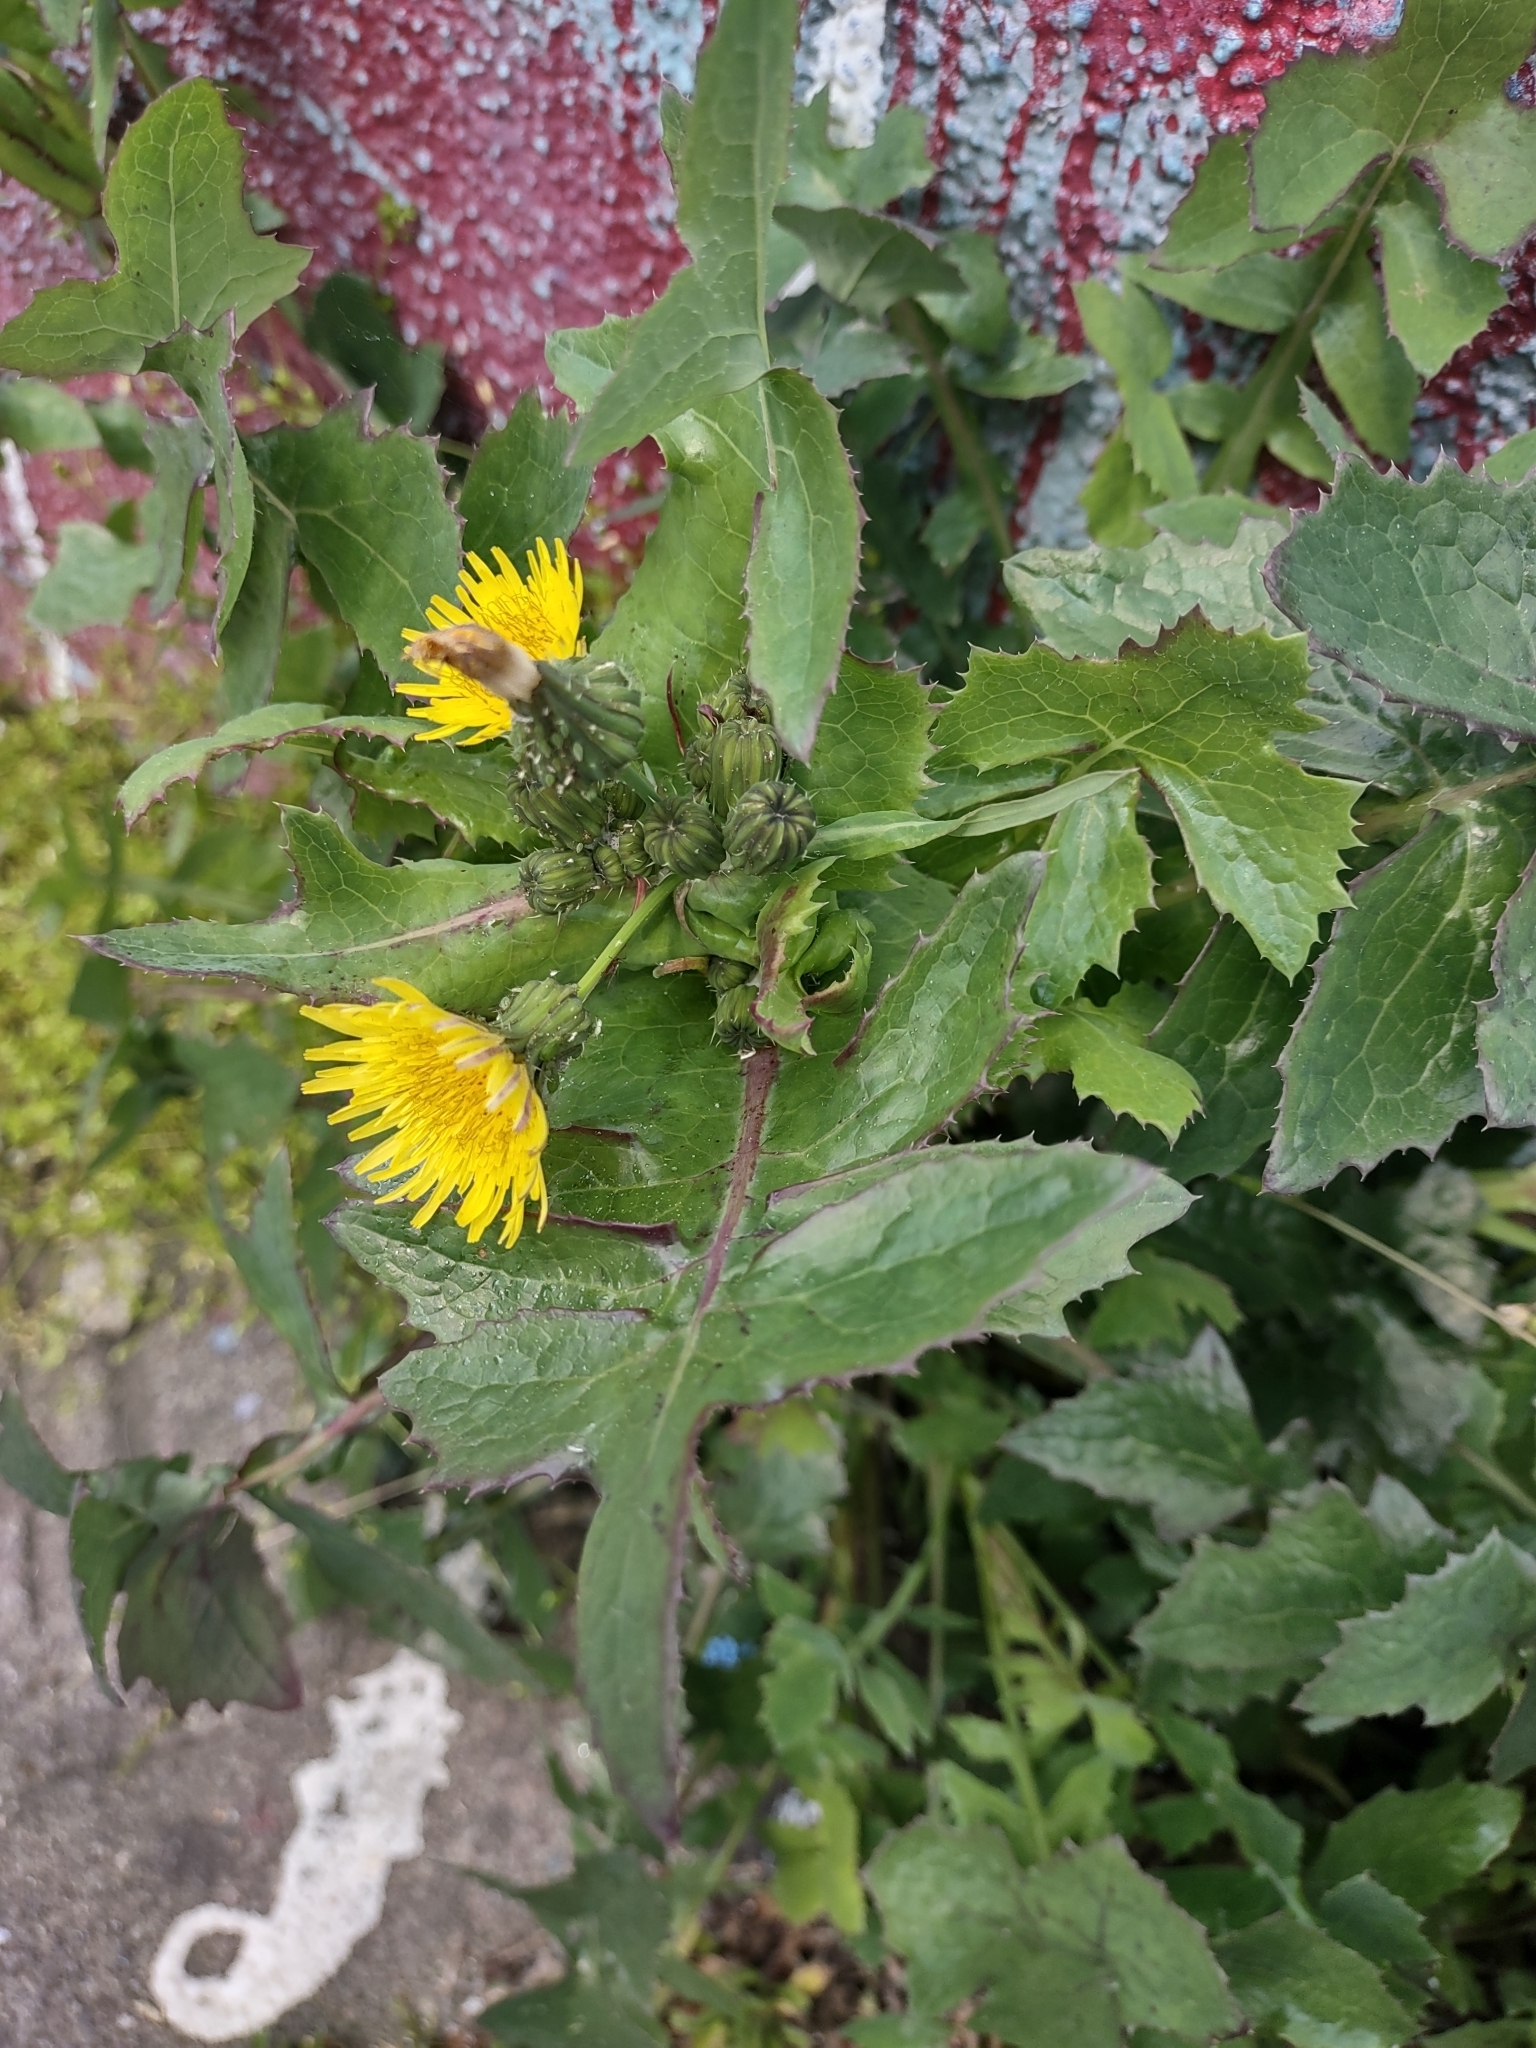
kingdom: Plantae
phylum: Tracheophyta
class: Magnoliopsida
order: Asterales
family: Asteraceae
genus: Sonchus
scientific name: Sonchus oleraceus
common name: Common sowthistle
